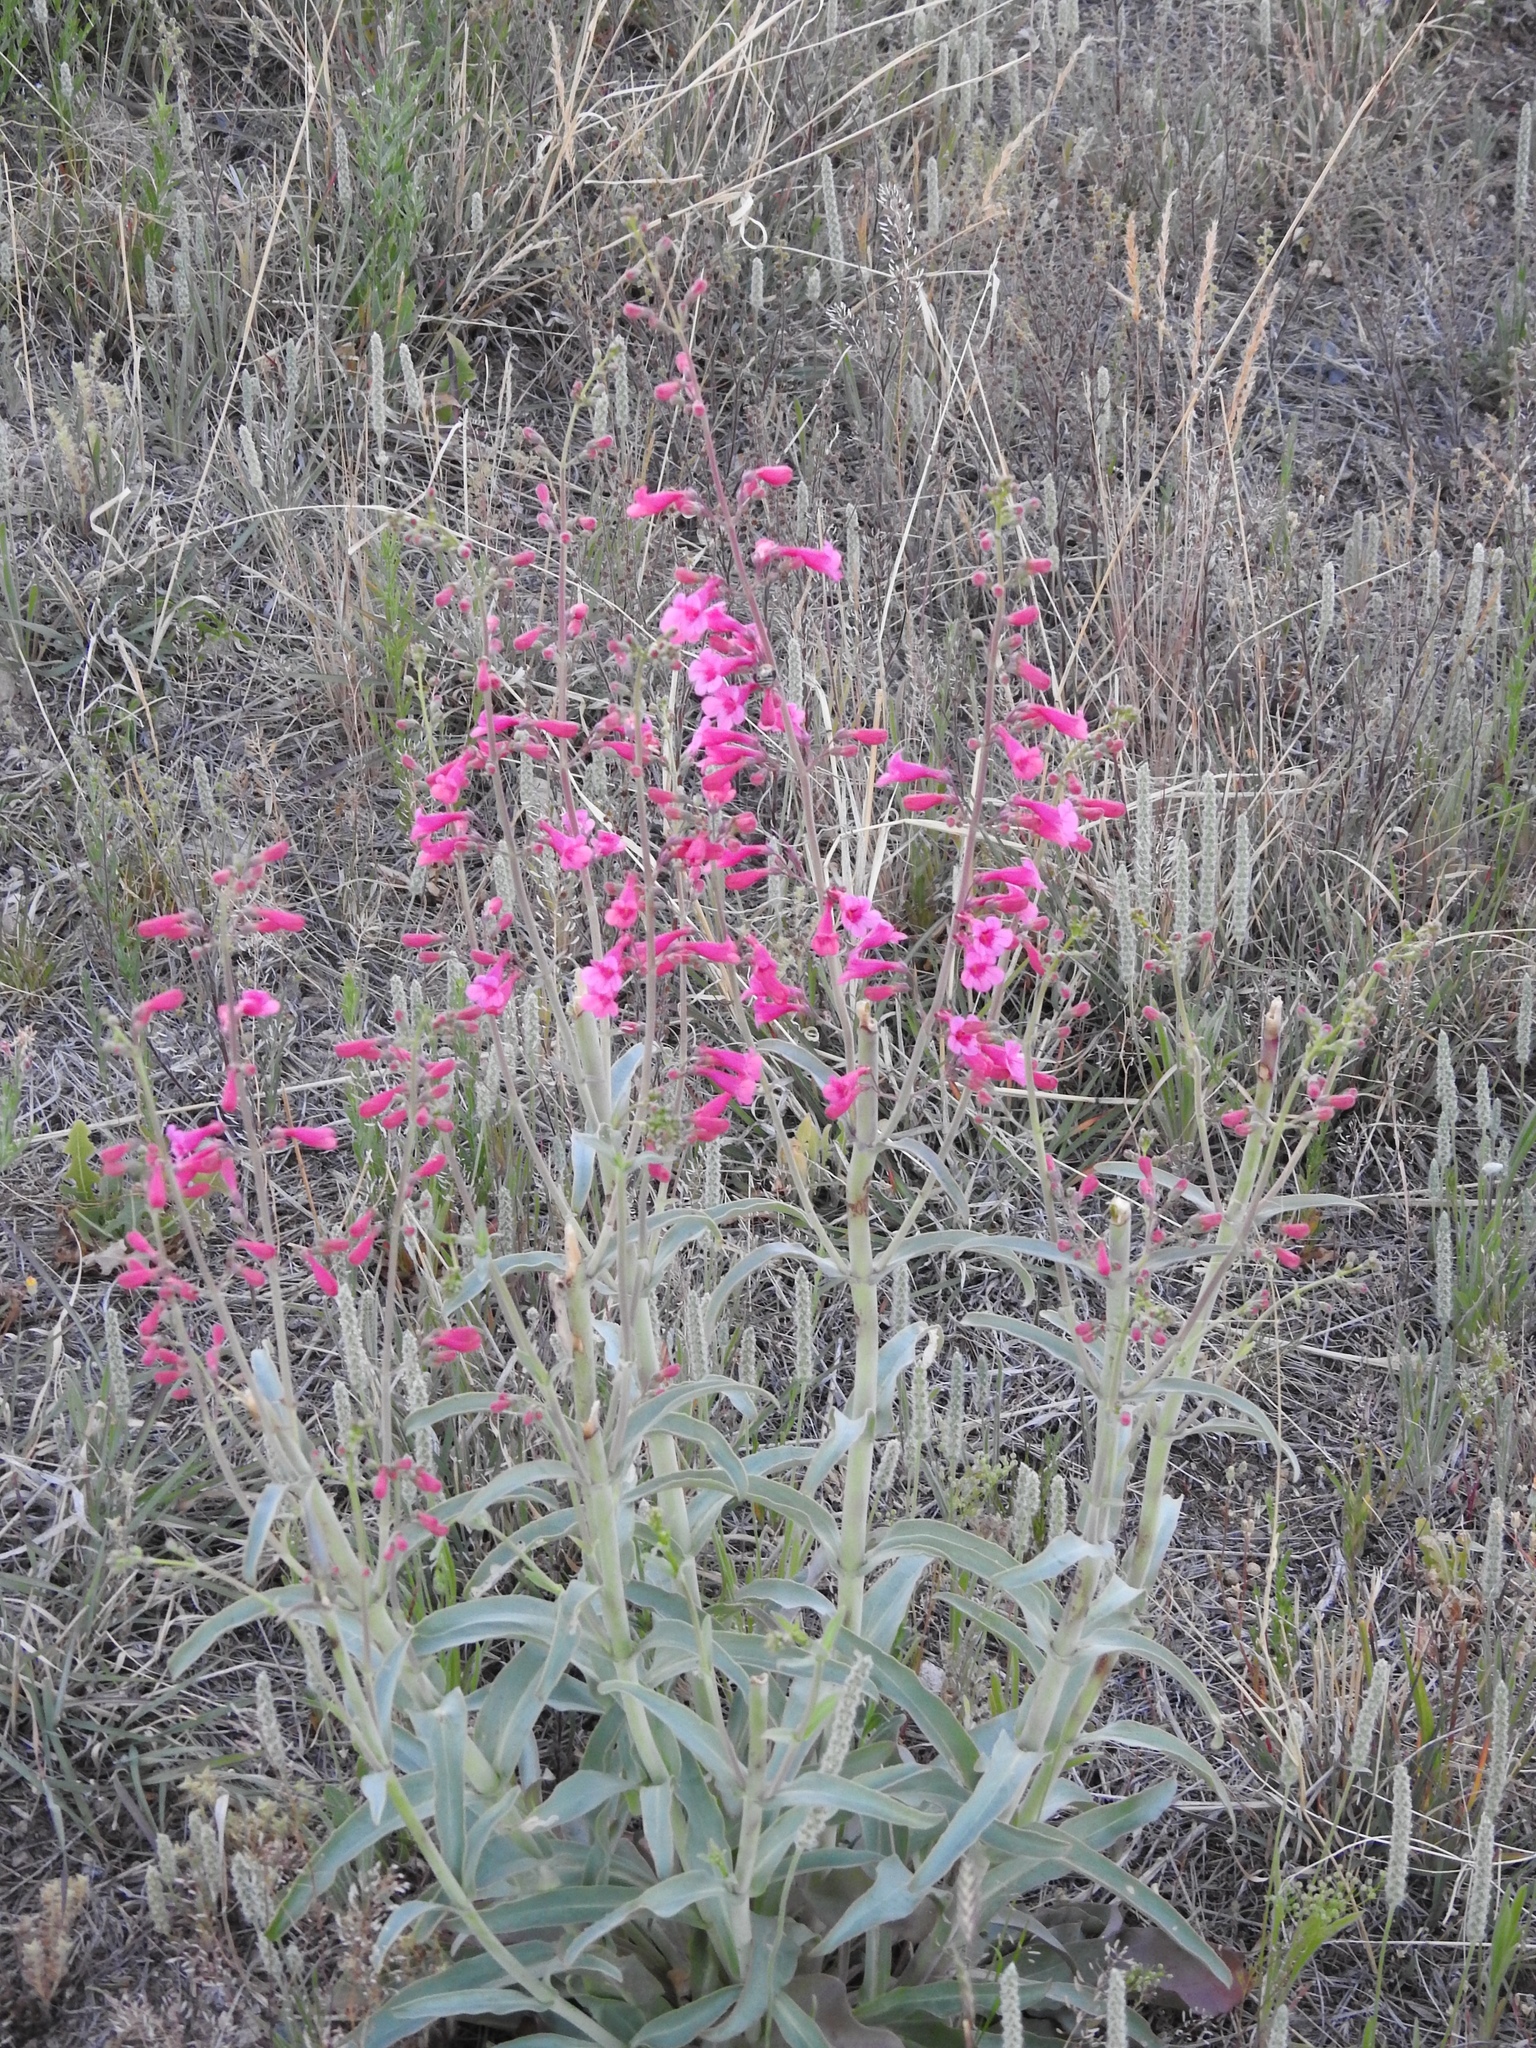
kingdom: Plantae
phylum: Tracheophyta
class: Magnoliopsida
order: Lamiales
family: Plantaginaceae
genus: Penstemon
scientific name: Penstemon parryi
